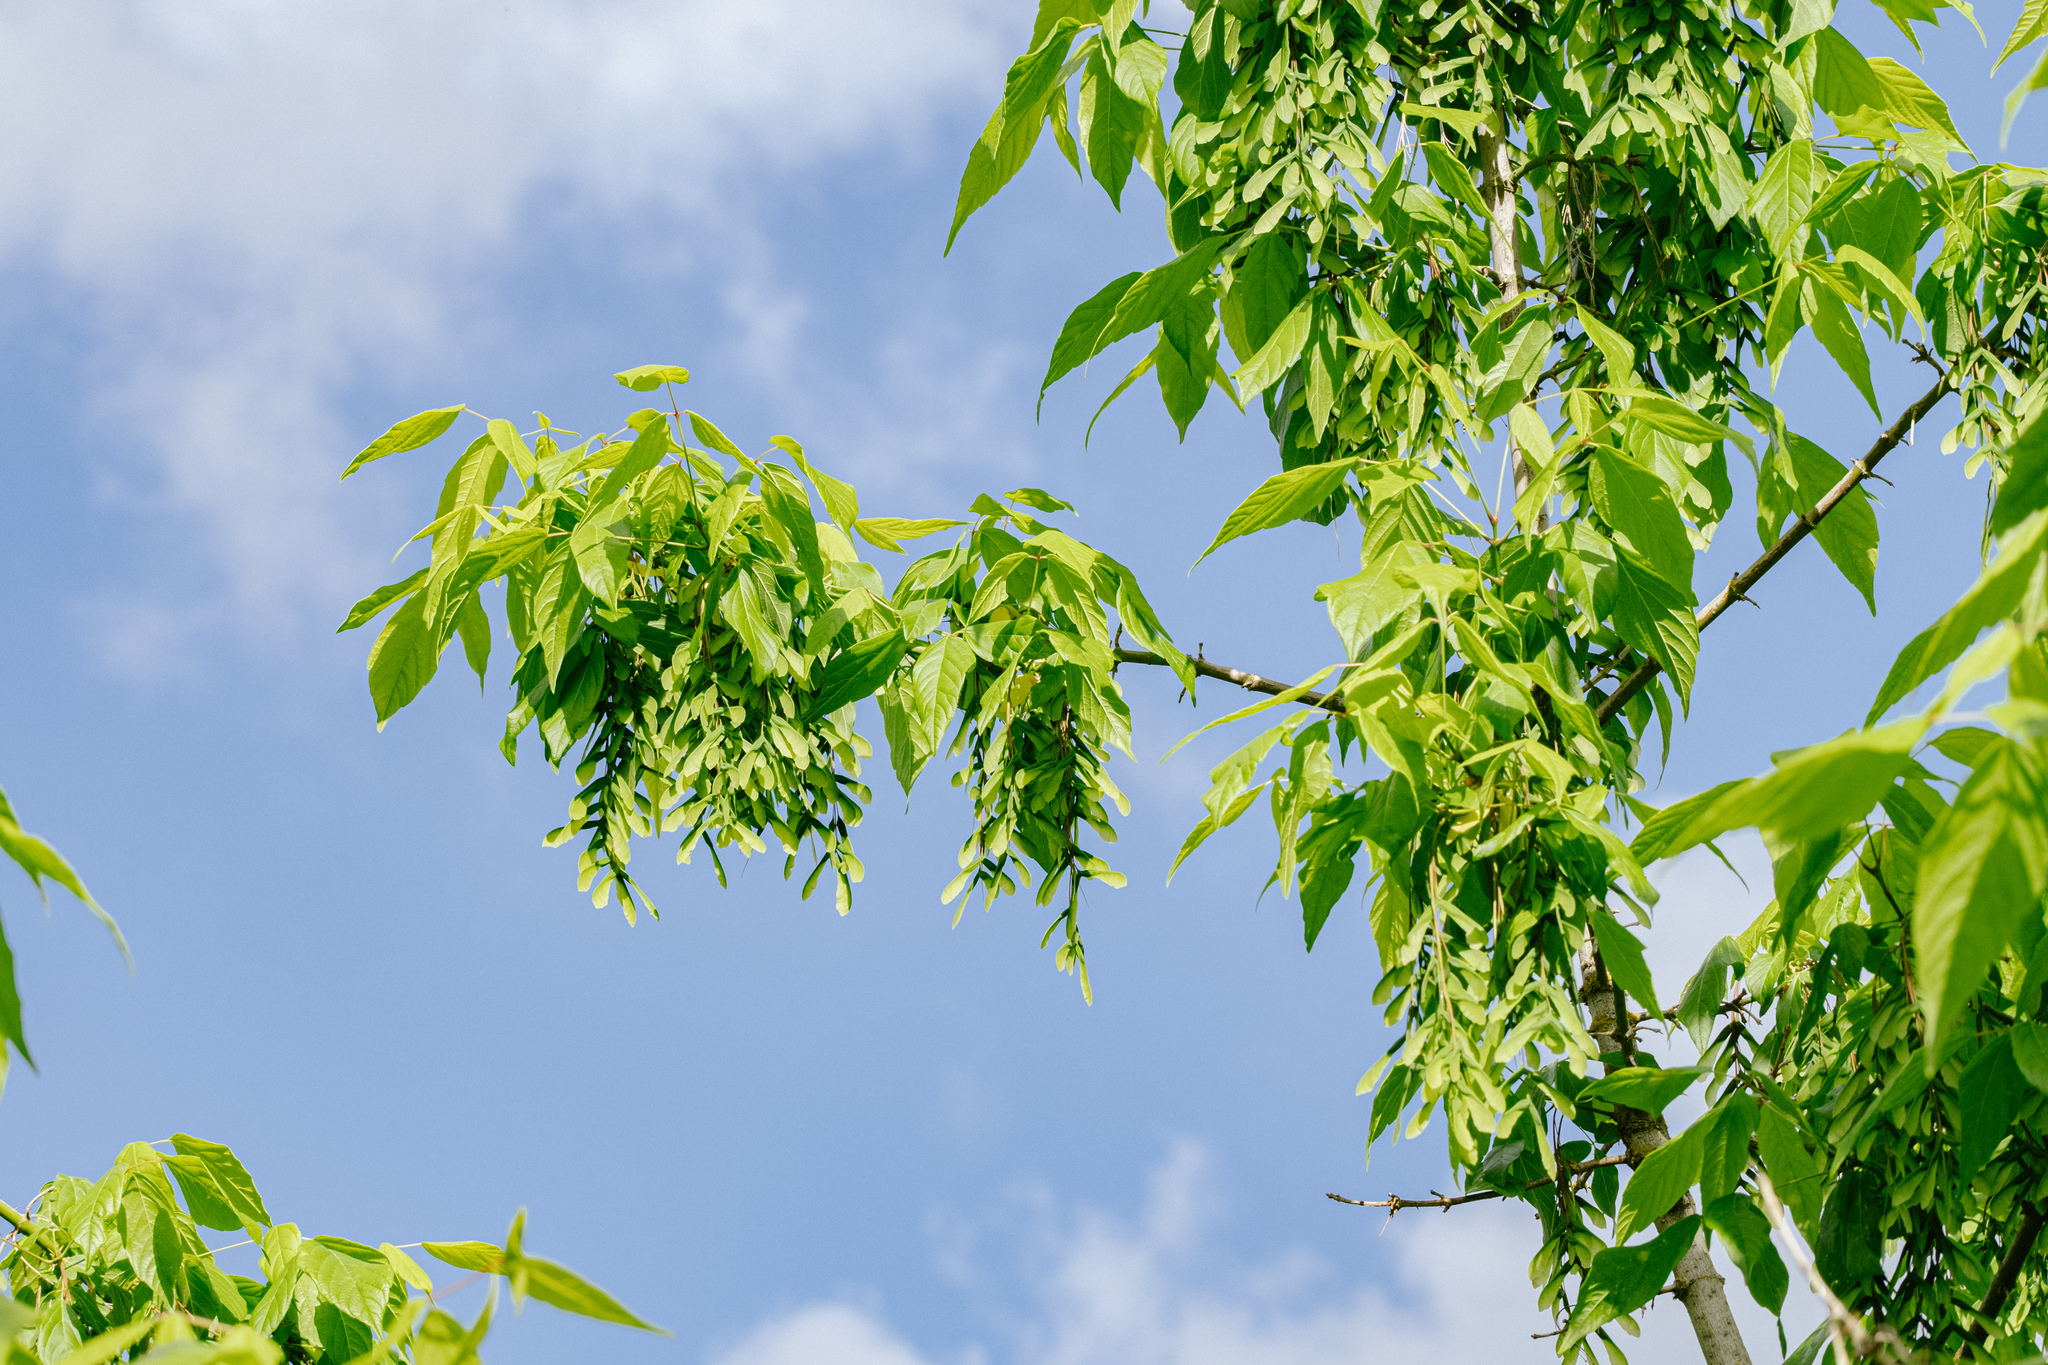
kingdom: Plantae
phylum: Tracheophyta
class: Magnoliopsida
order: Sapindales
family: Sapindaceae
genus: Acer
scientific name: Acer negundo
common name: Ashleaf maple
